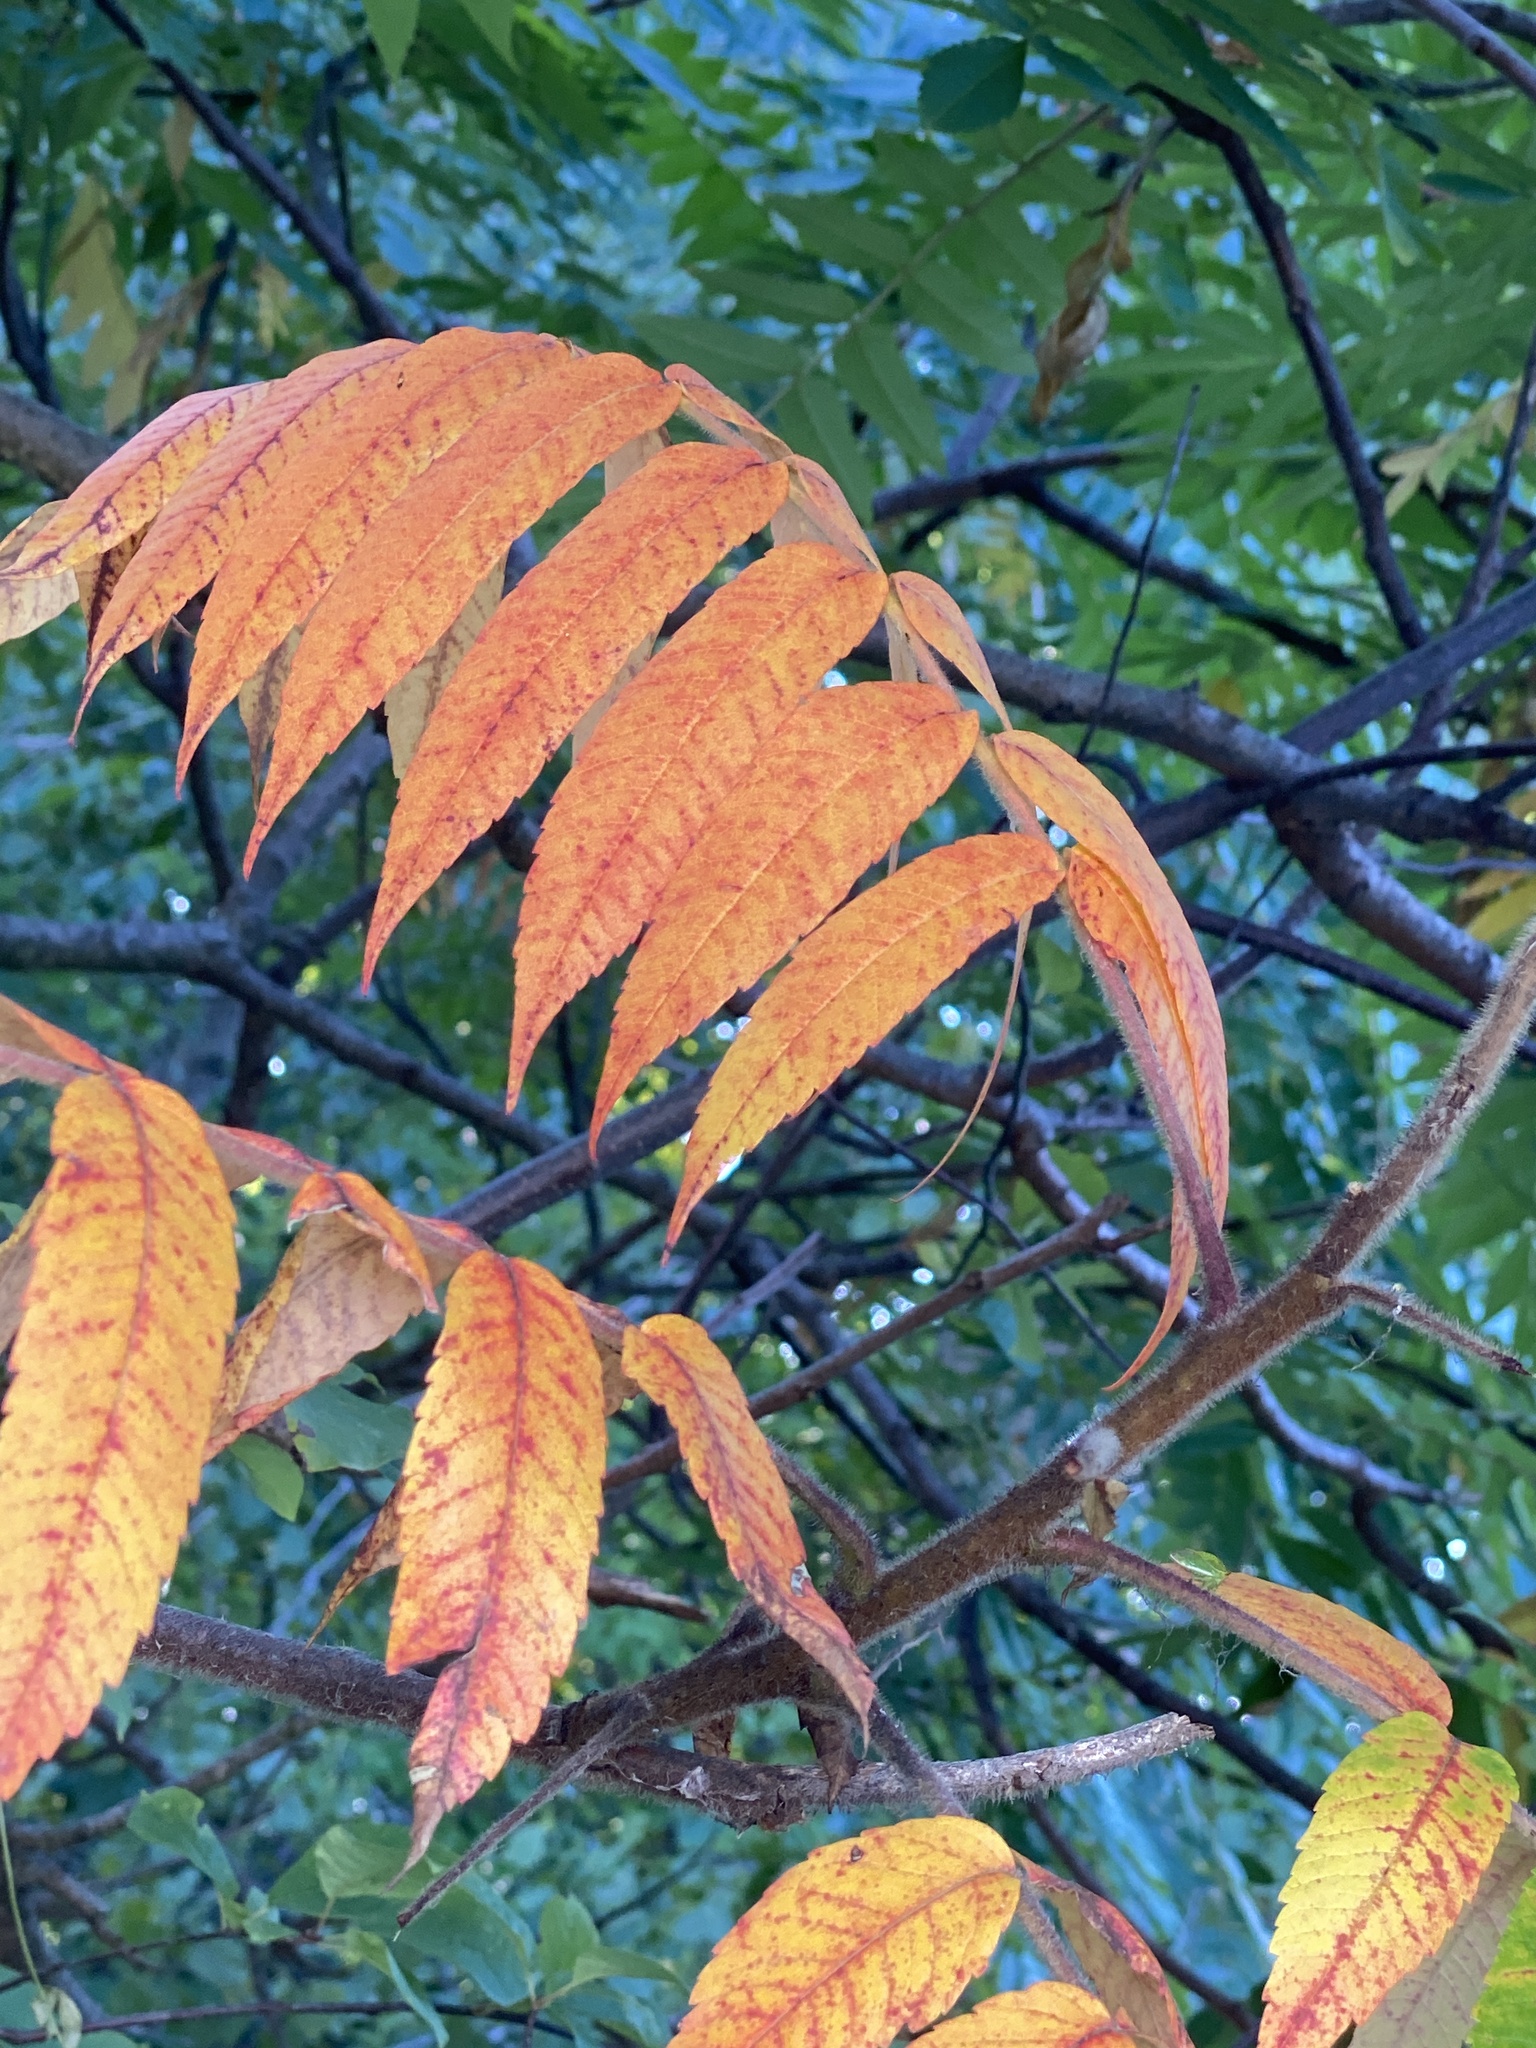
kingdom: Plantae
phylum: Tracheophyta
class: Magnoliopsida
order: Sapindales
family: Anacardiaceae
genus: Rhus
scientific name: Rhus typhina
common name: Staghorn sumac
